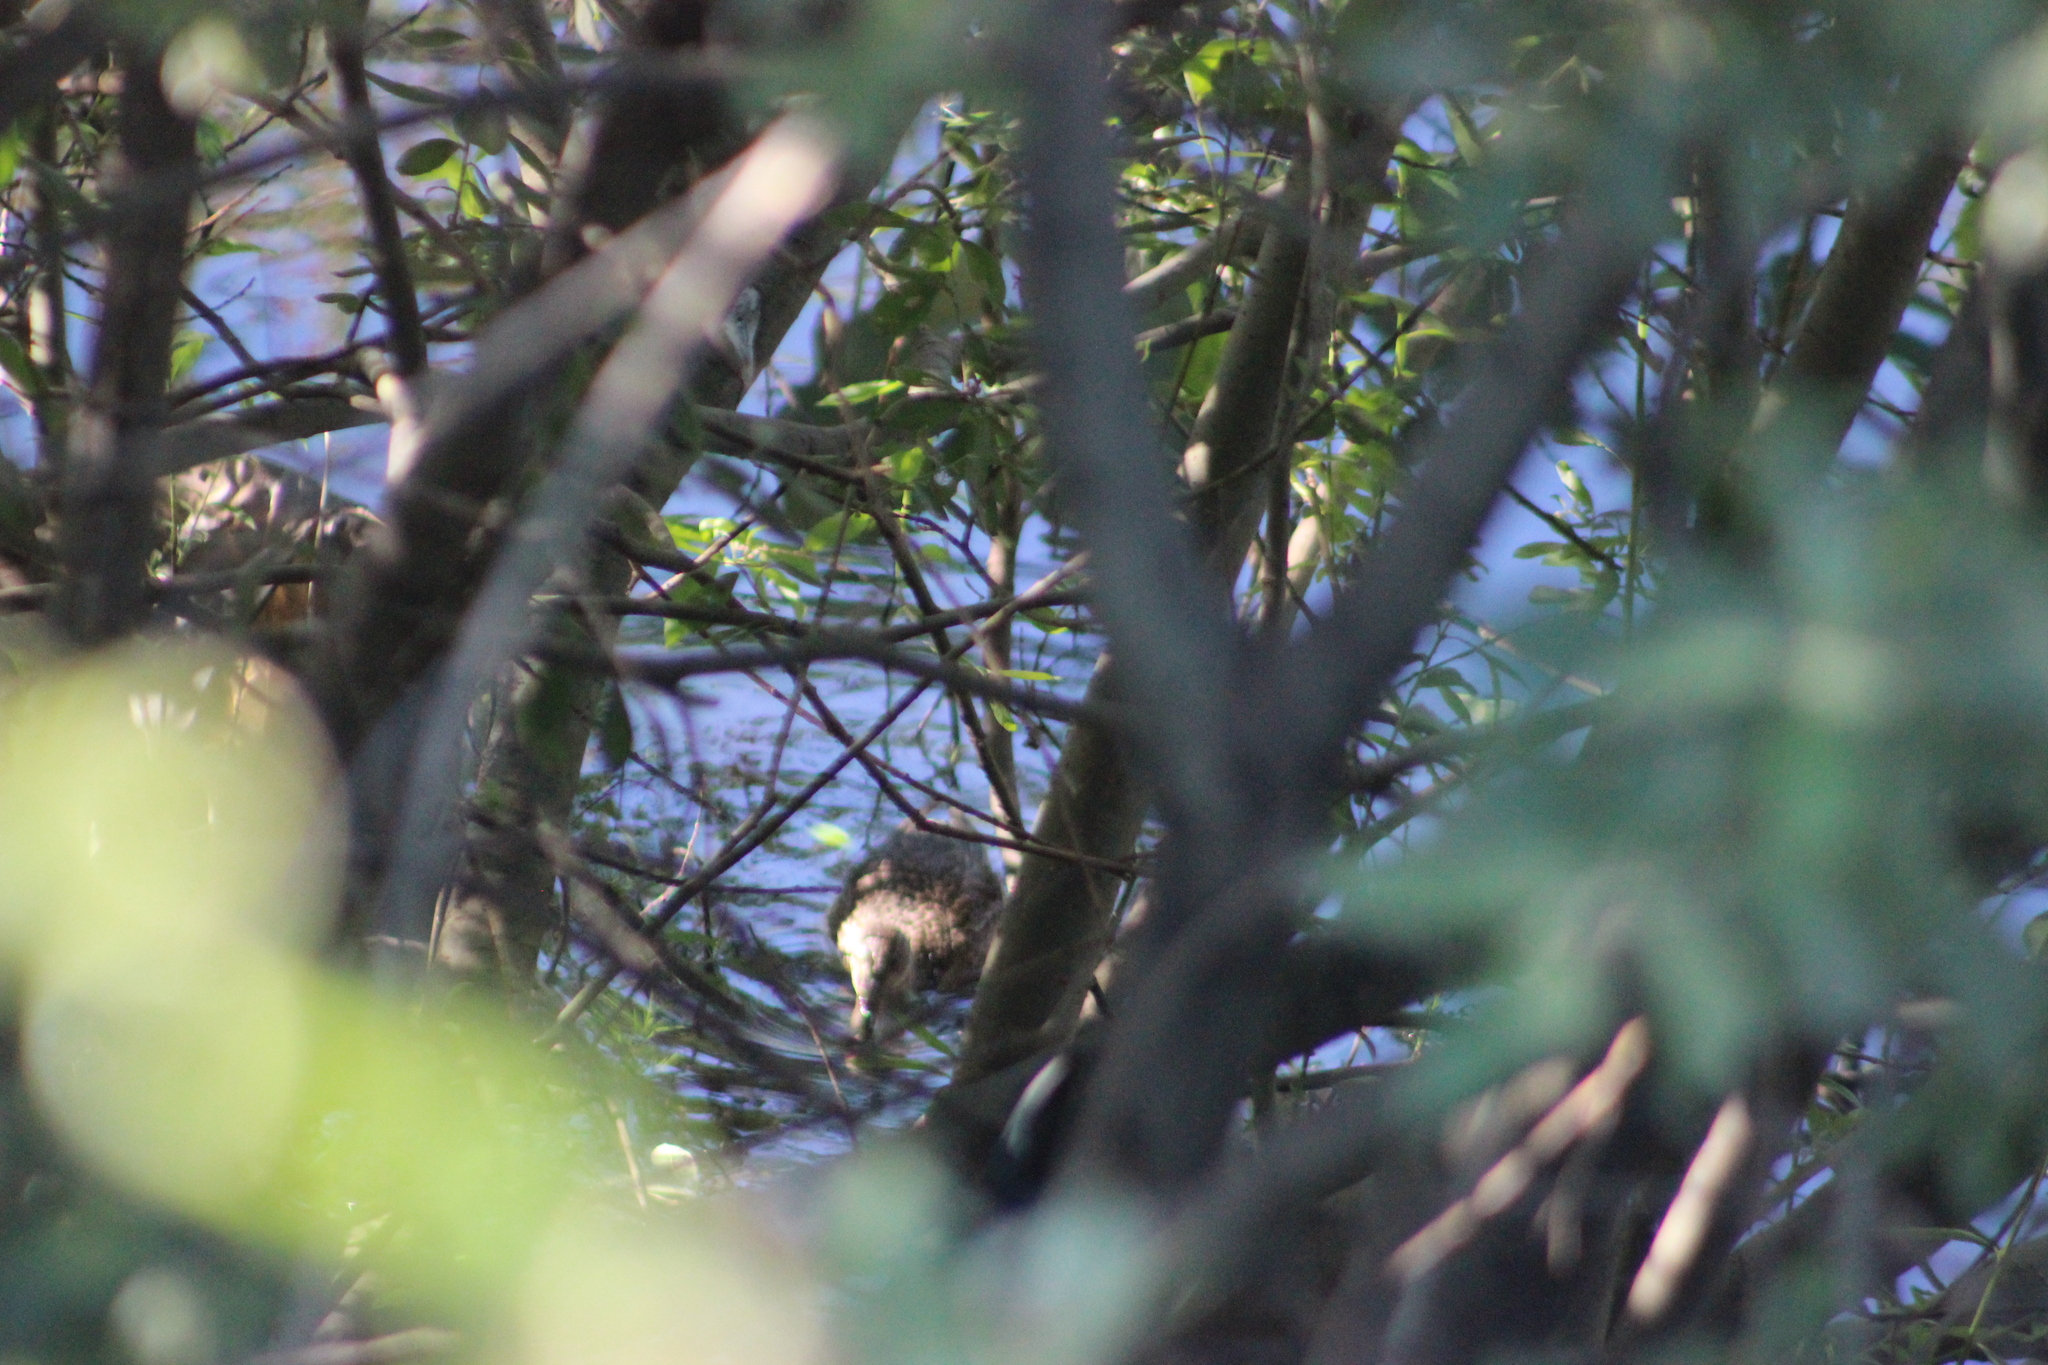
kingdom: Animalia
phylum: Chordata
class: Aves
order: Anseriformes
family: Anatidae
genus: Anas
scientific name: Anas platyrhynchos
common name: Mallard
